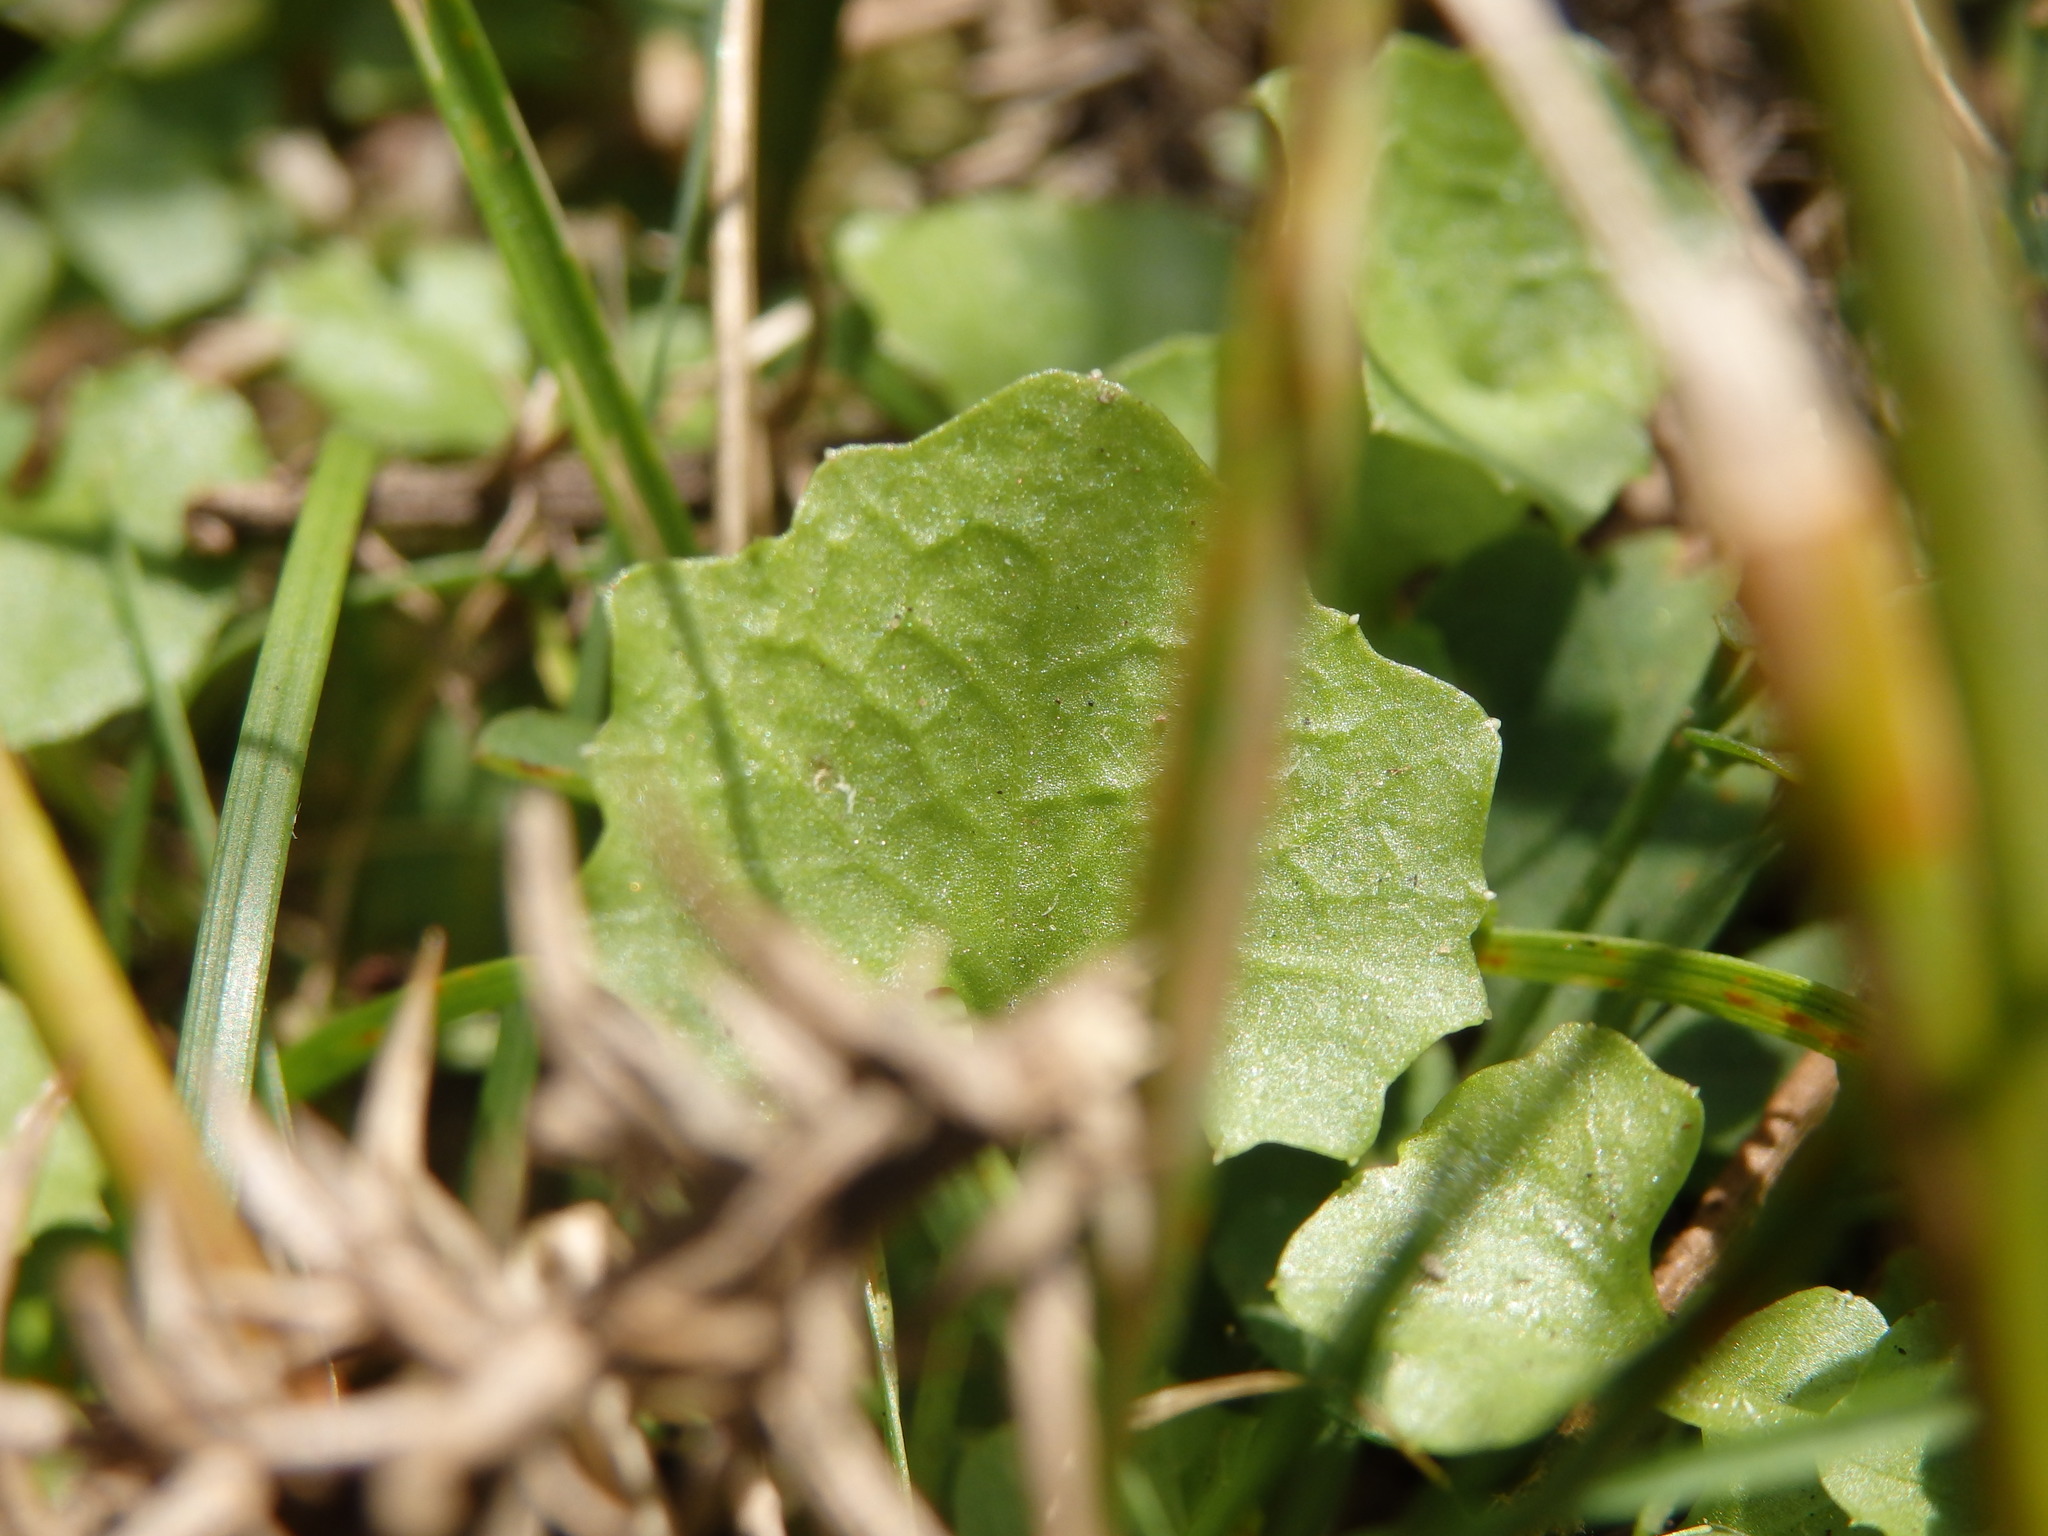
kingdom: Plantae
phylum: Tracheophyta
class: Magnoliopsida
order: Asterales
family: Campanulaceae
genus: Hesperocodon
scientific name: Hesperocodon hederaceus
